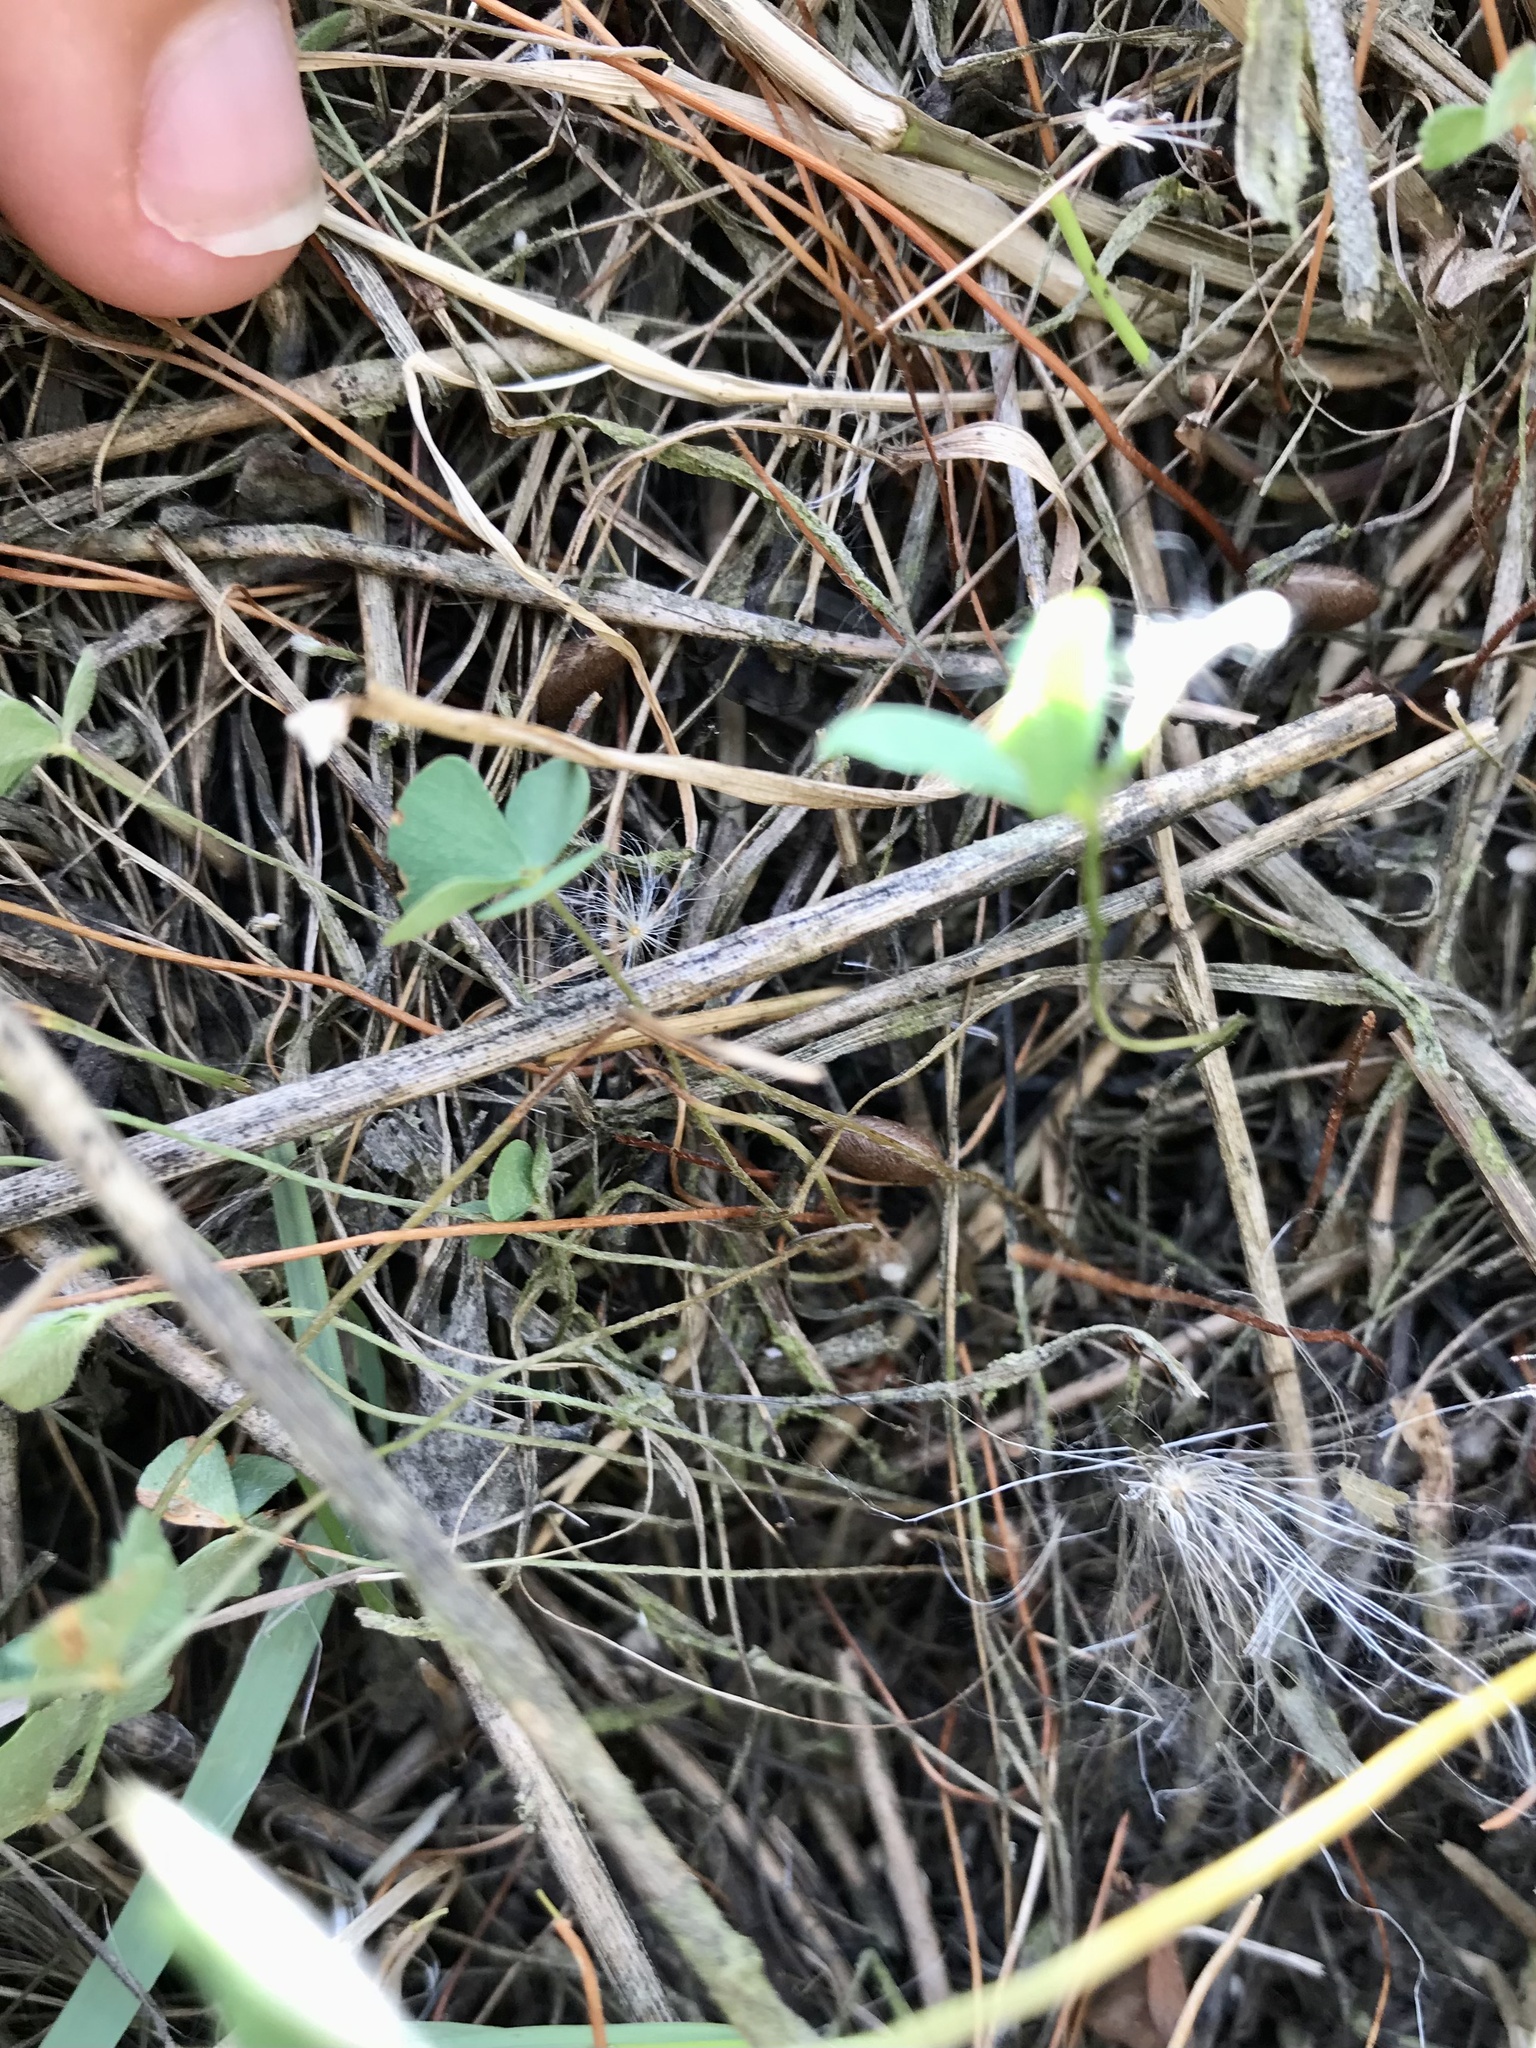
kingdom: Plantae
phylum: Tracheophyta
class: Polypodiopsida
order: Salviniales
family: Marsileaceae
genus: Marsilea
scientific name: Marsilea vestita
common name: Hooked-pepperwort
